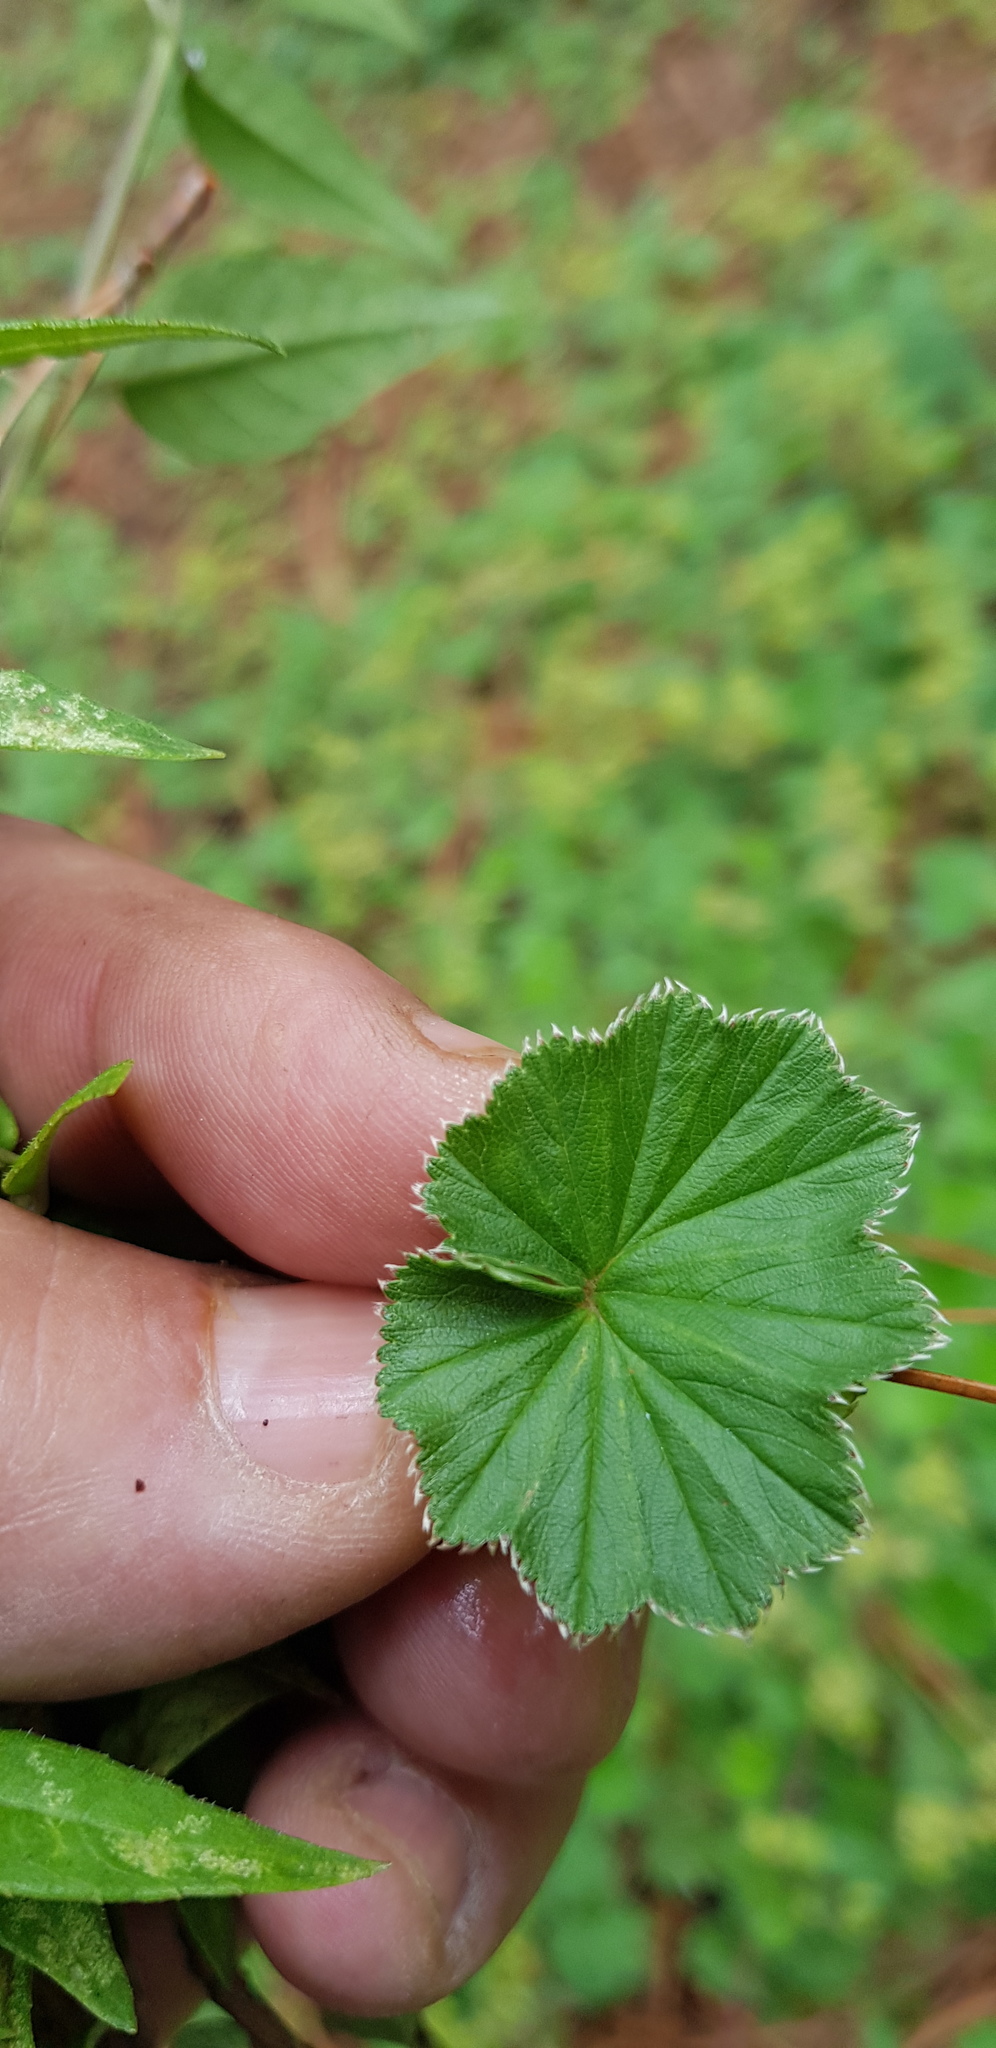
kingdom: Plantae
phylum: Tracheophyta
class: Magnoliopsida
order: Rosales
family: Rosaceae
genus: Lachemilla
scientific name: Lachemilla pectinata
